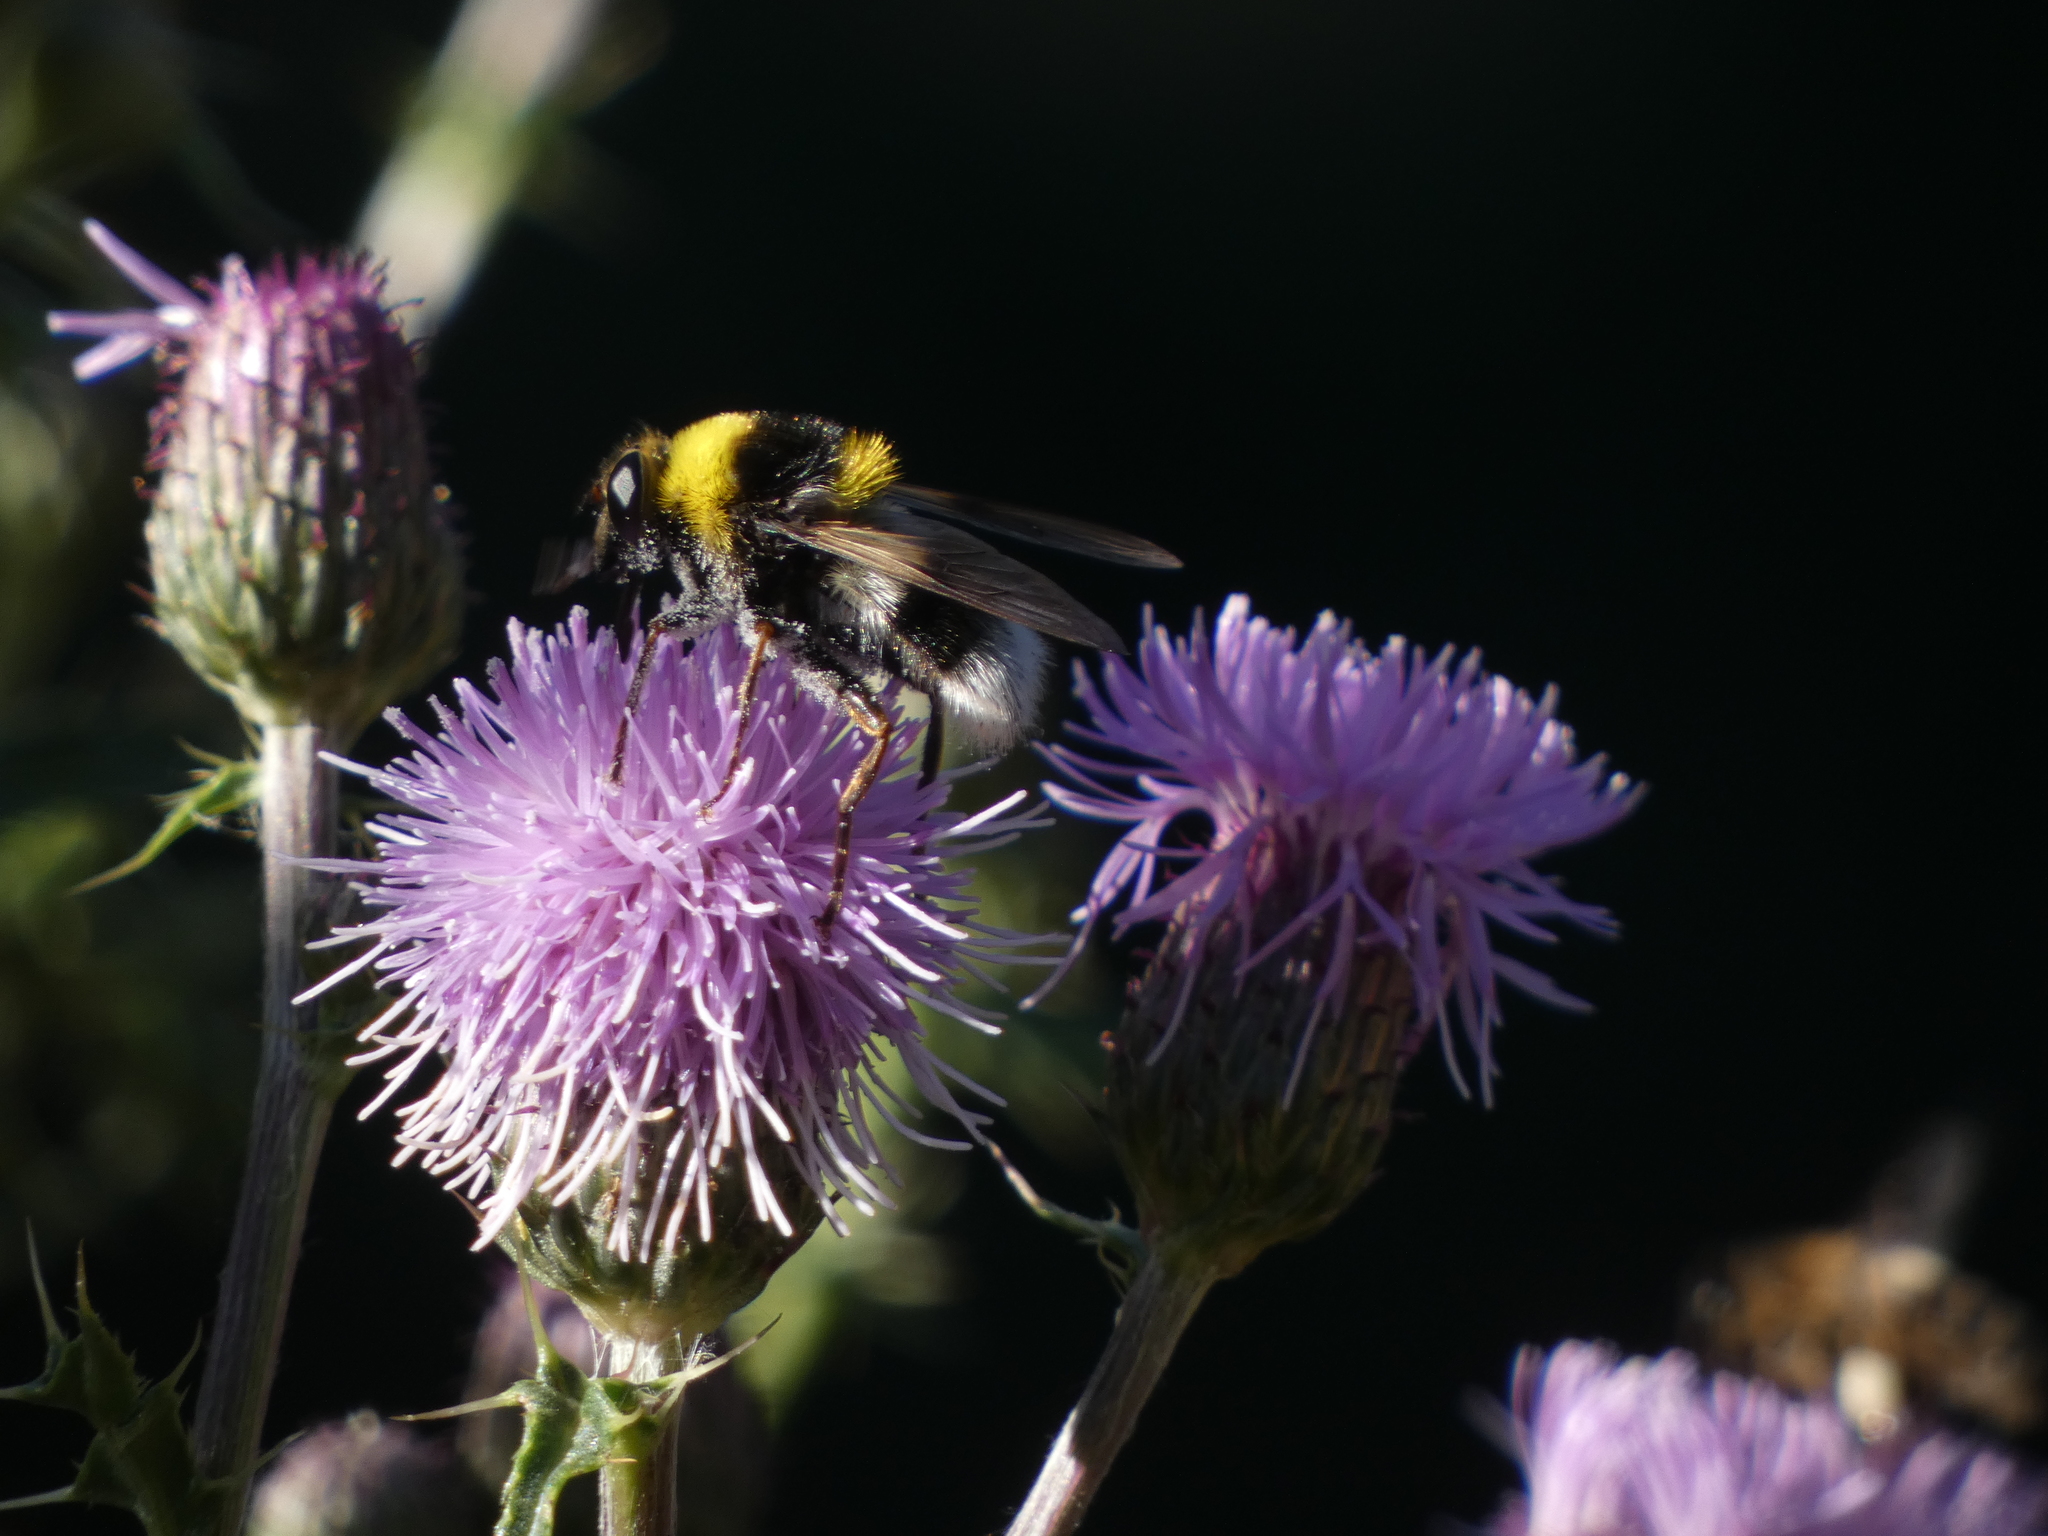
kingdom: Animalia
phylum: Arthropoda
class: Insecta
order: Diptera
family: Syrphidae
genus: Sericomyia
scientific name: Sericomyia bombiformis
